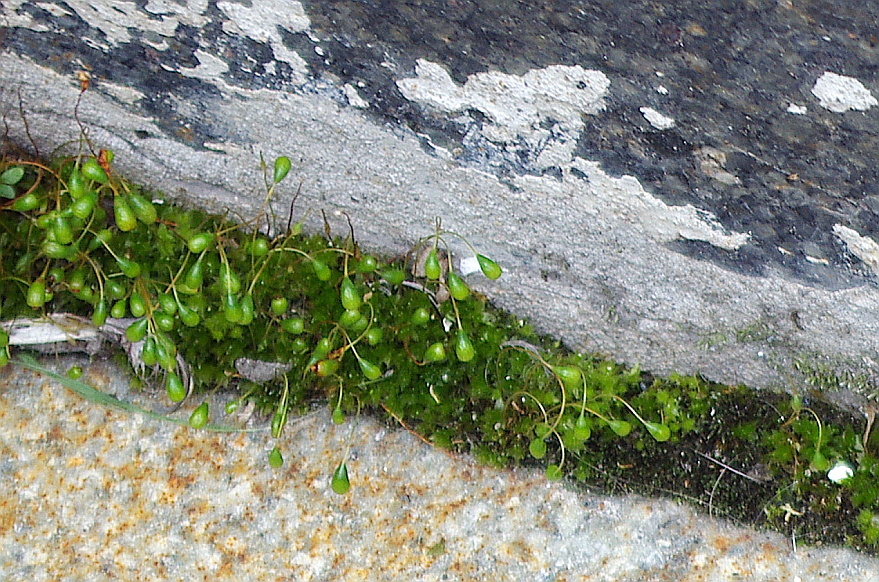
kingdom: Plantae
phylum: Bryophyta
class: Bryopsida
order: Funariales
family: Funariaceae
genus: Funaria
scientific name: Funaria hygrometrica
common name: Common cord moss
